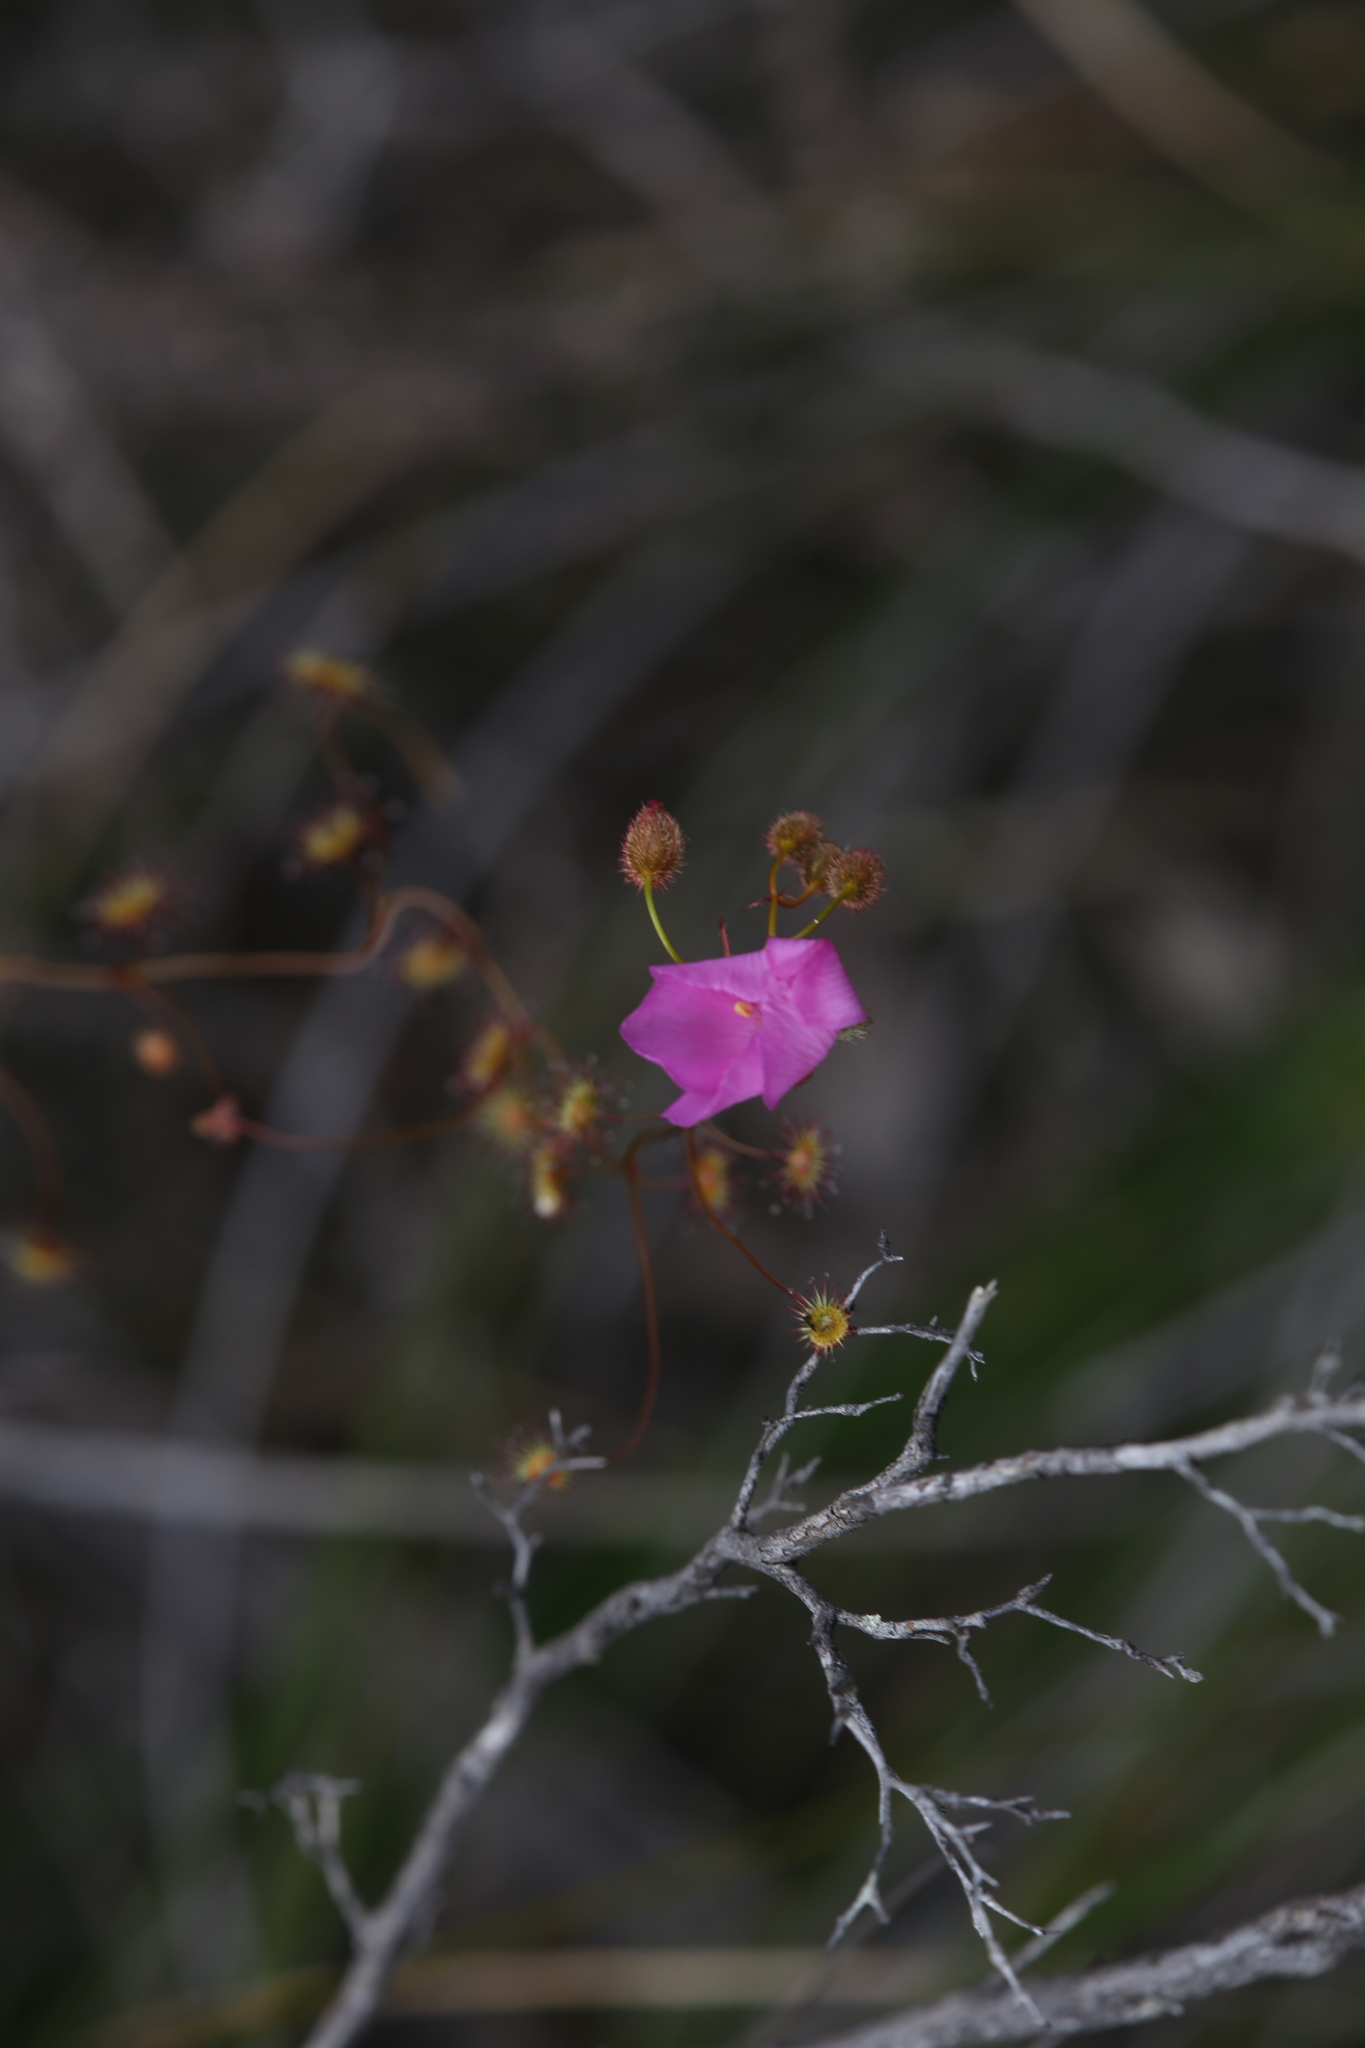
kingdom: Plantae
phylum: Tracheophyta
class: Magnoliopsida
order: Caryophyllales
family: Droseraceae
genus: Drosera
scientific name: Drosera
